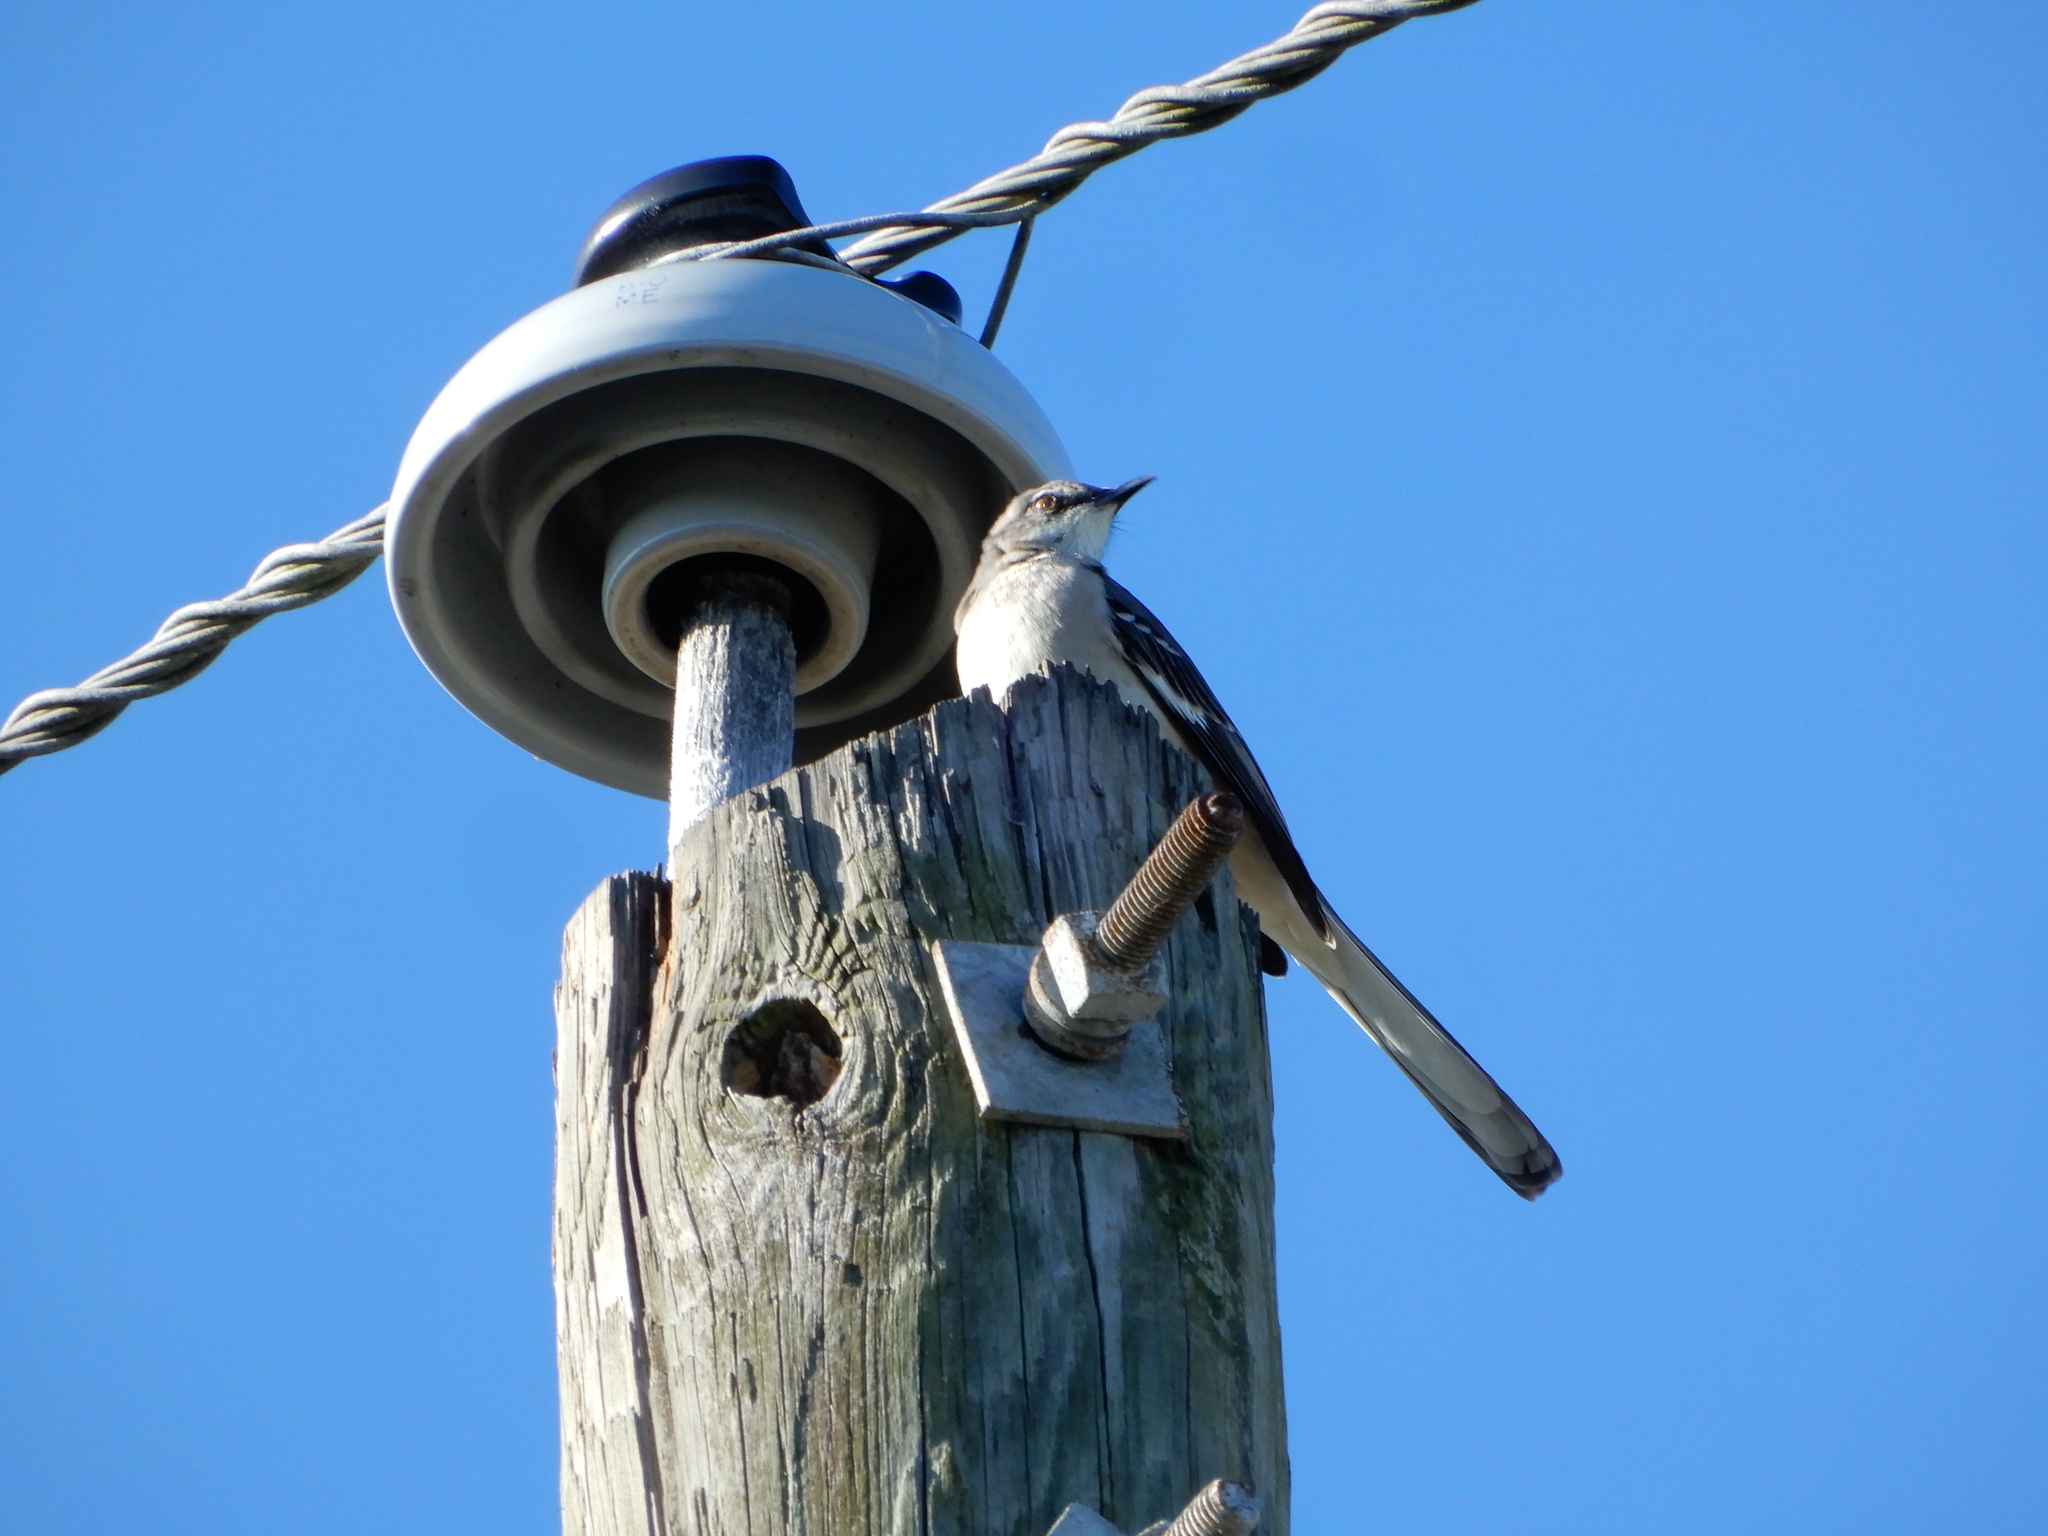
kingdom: Animalia
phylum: Chordata
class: Aves
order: Passeriformes
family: Mimidae
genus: Mimus
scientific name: Mimus polyglottos
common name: Northern mockingbird
